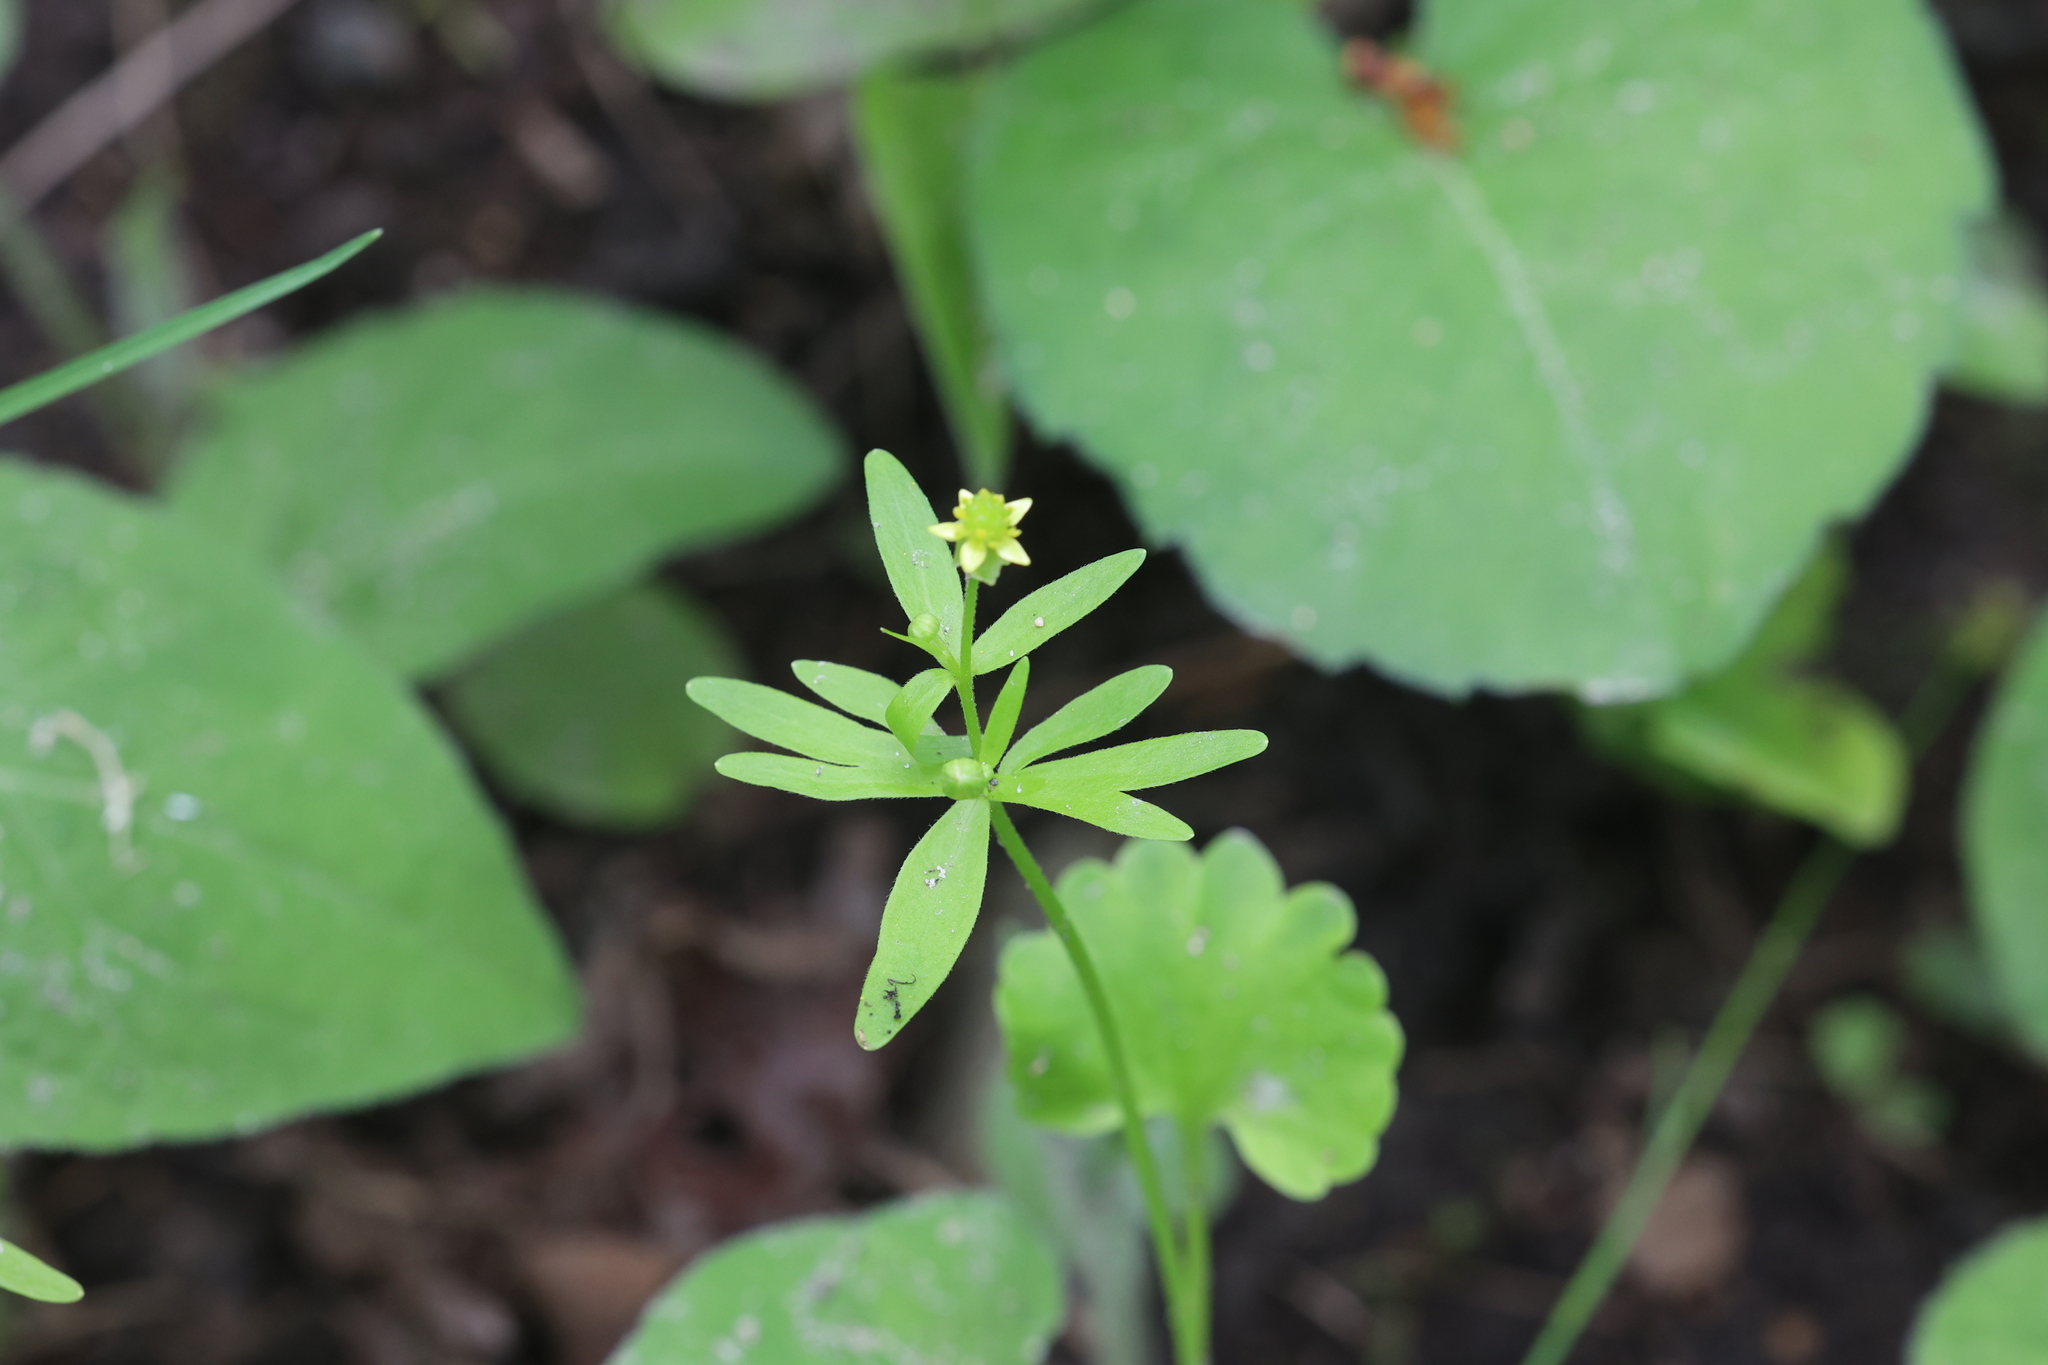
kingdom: Plantae
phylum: Tracheophyta
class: Magnoliopsida
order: Ranunculales
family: Ranunculaceae
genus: Ranunculus
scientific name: Ranunculus abortivus
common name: Early wood buttercup
